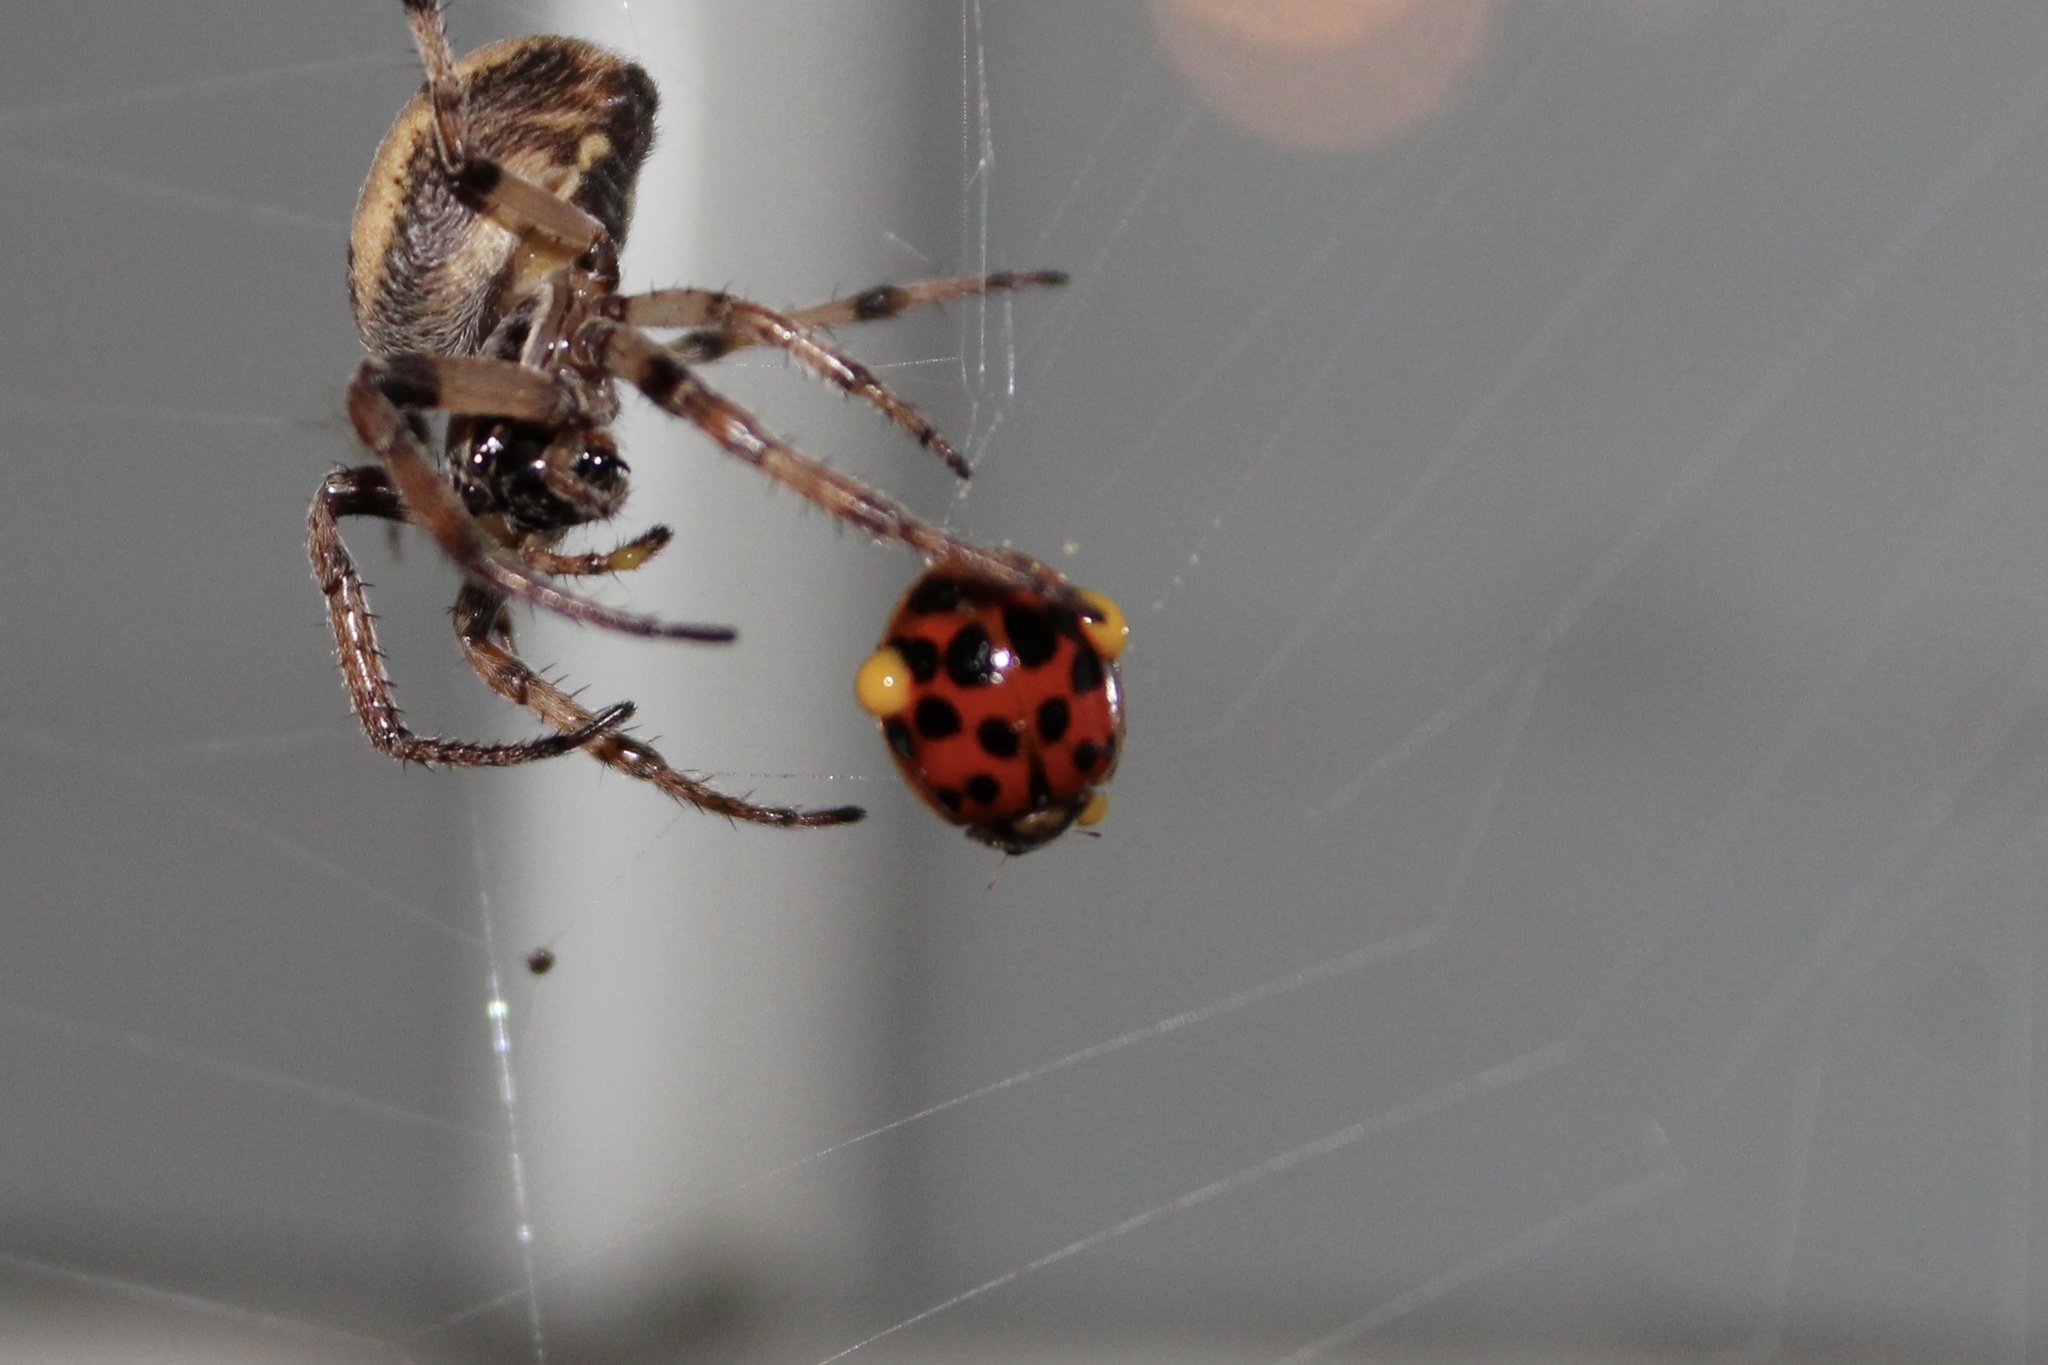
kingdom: Animalia
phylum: Arthropoda
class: Insecta
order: Coleoptera
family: Coccinellidae
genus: Harmonia
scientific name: Harmonia axyridis
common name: Harlequin ladybird
